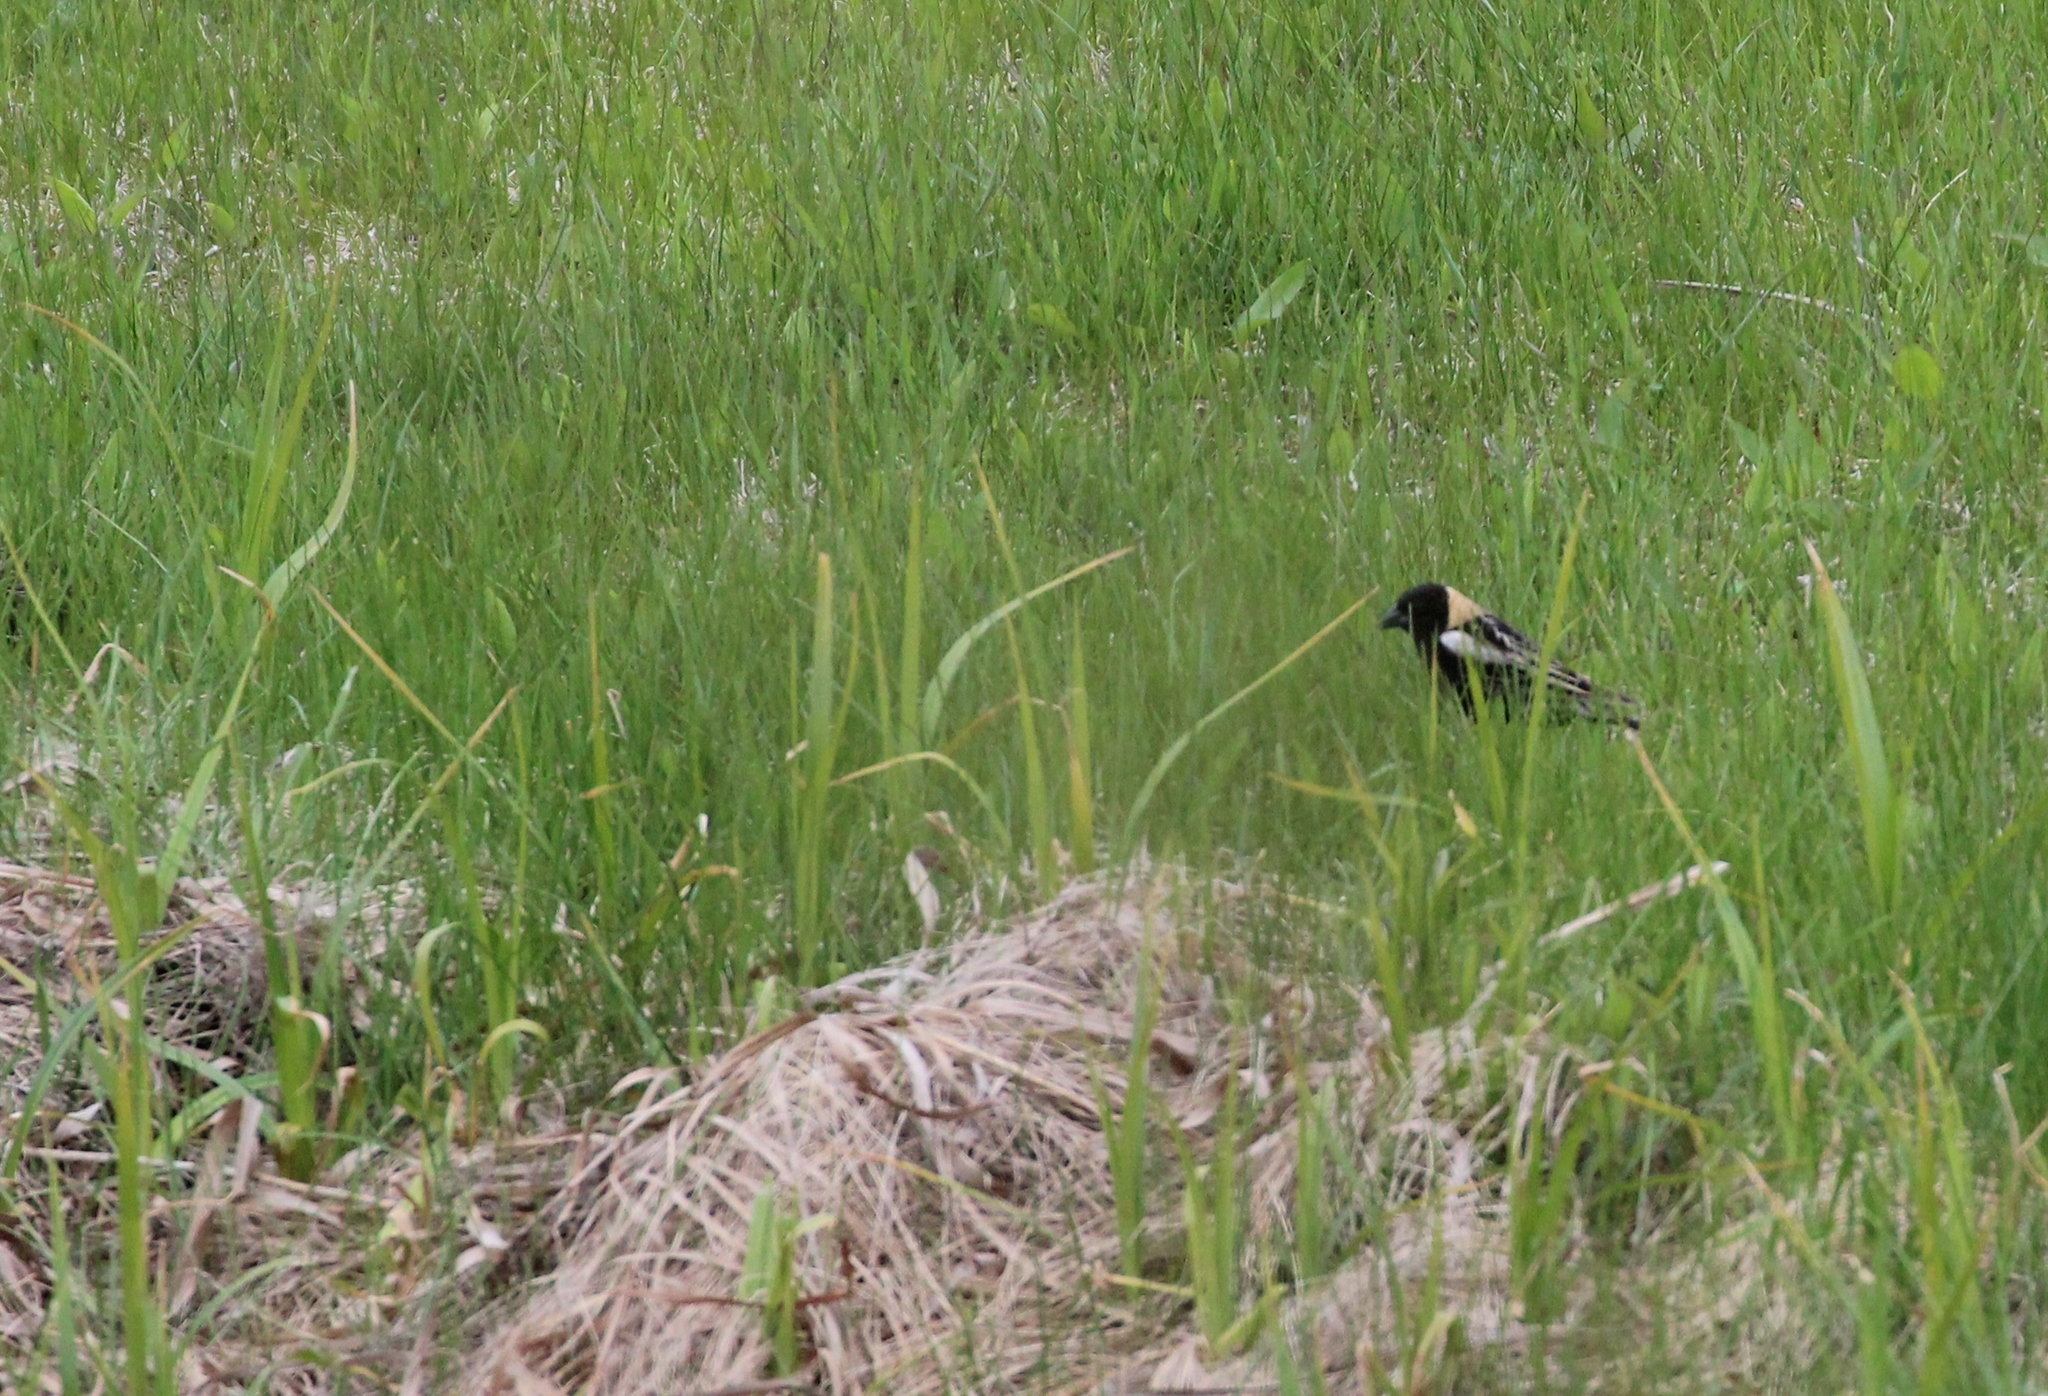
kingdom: Animalia
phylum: Chordata
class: Aves
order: Passeriformes
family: Icteridae
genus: Dolichonyx
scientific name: Dolichonyx oryzivorus
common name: Bobolink
